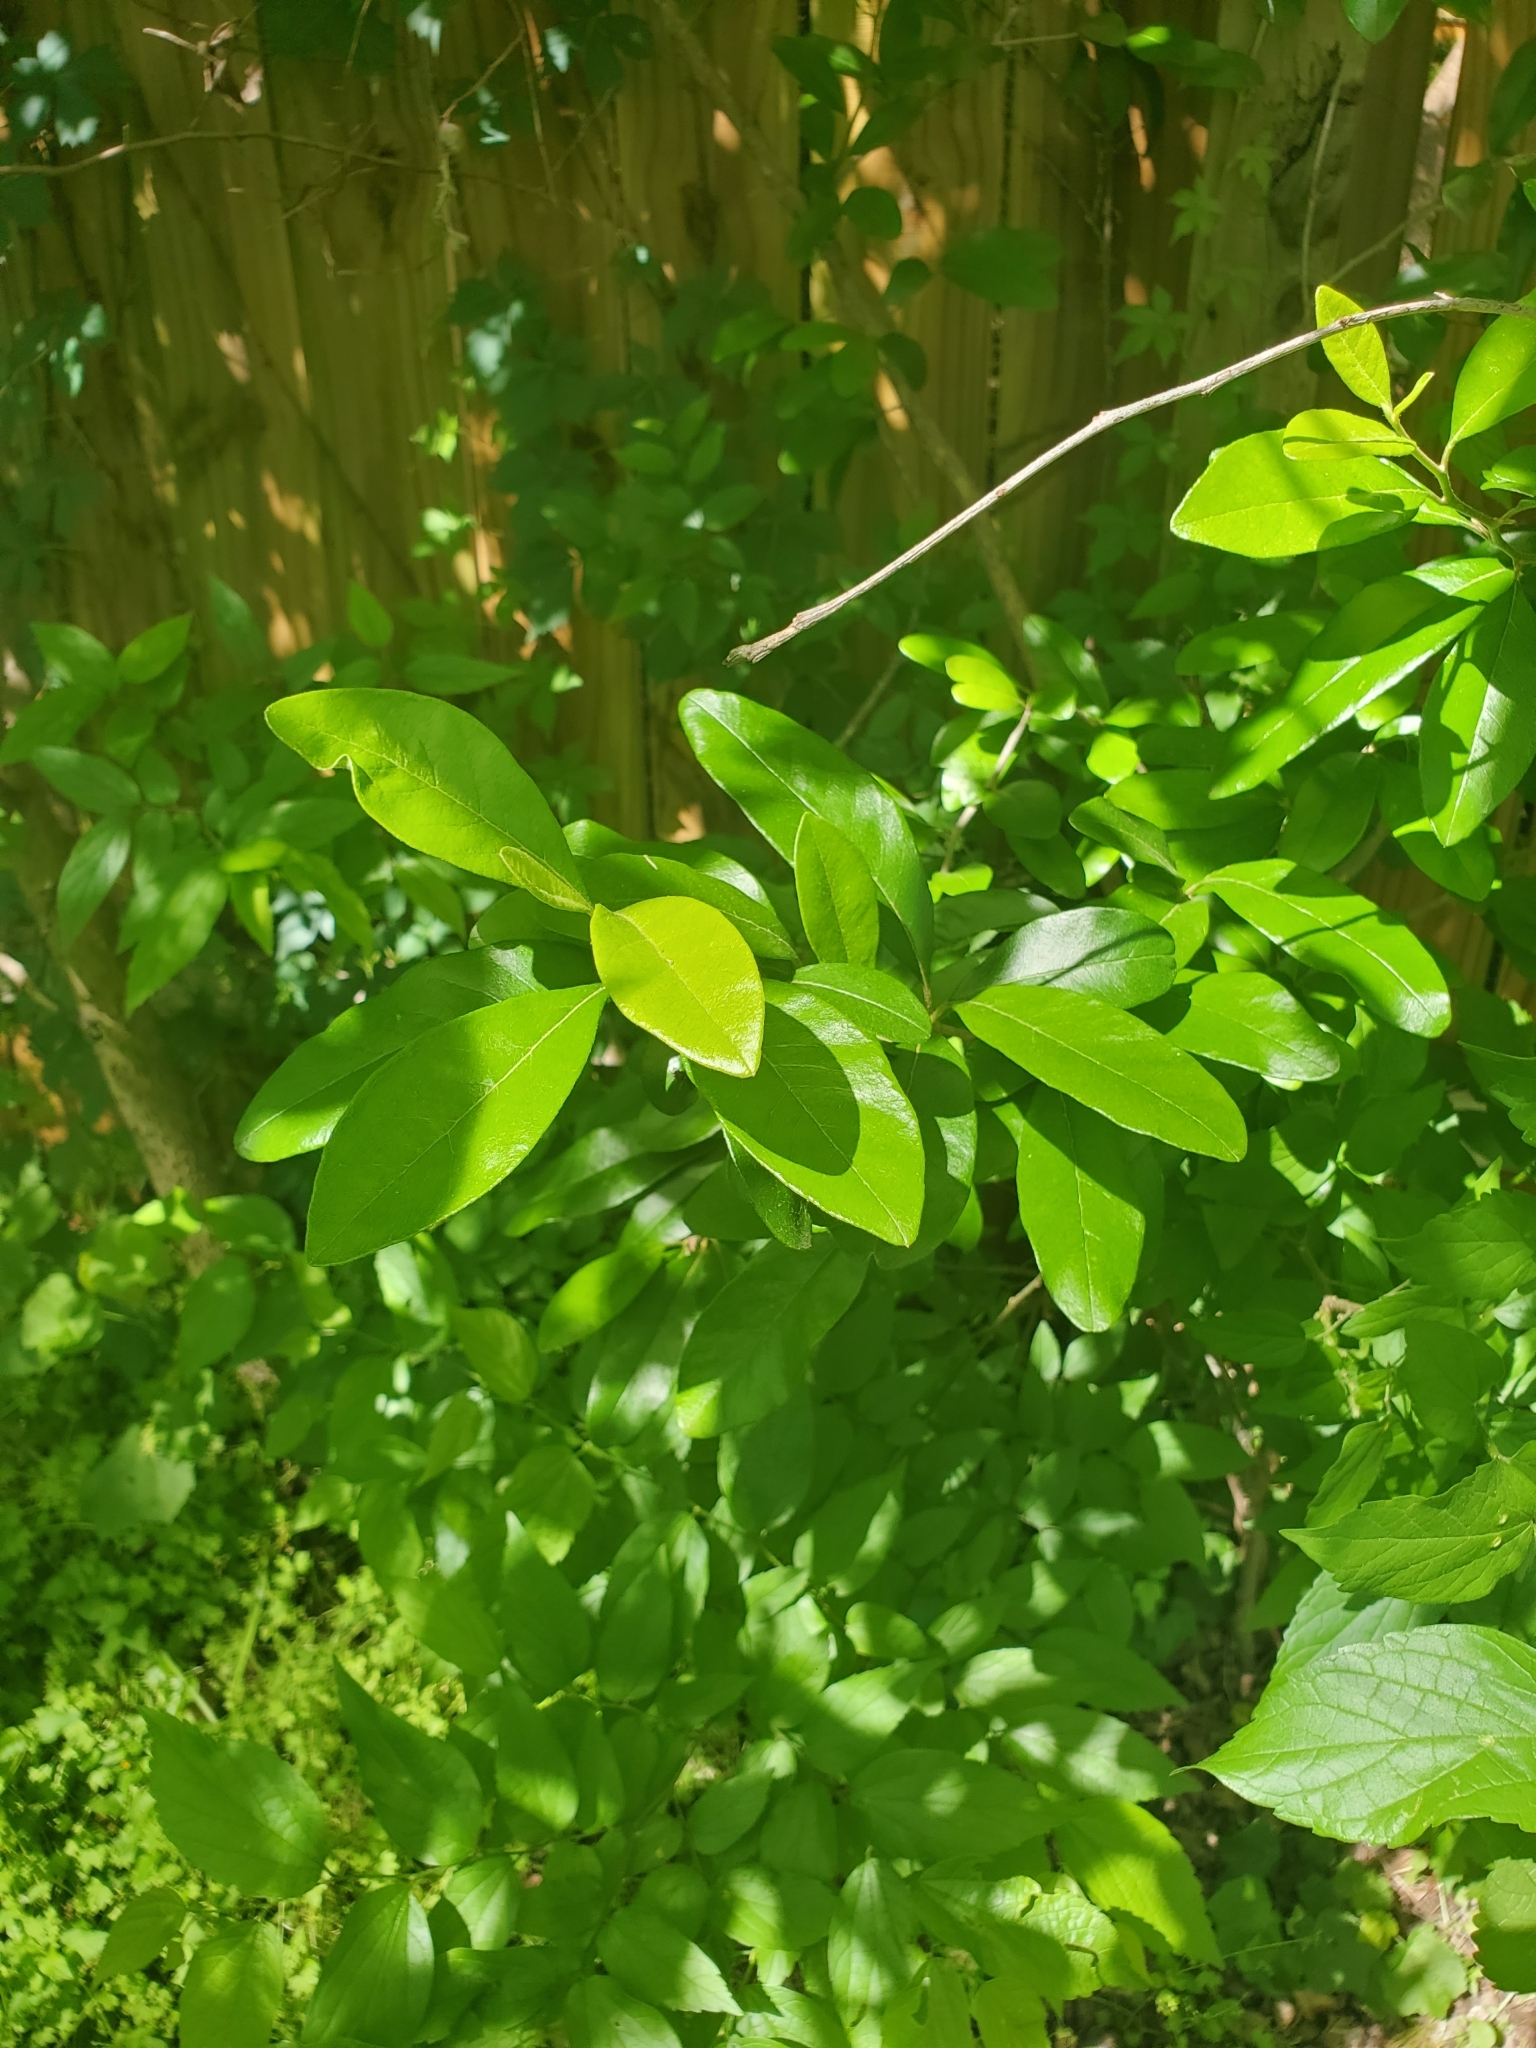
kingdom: Plantae
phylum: Tracheophyta
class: Magnoliopsida
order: Ericales
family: Sapotaceae
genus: Sideroxylon
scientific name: Sideroxylon lanuginosum
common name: Chittamwood
